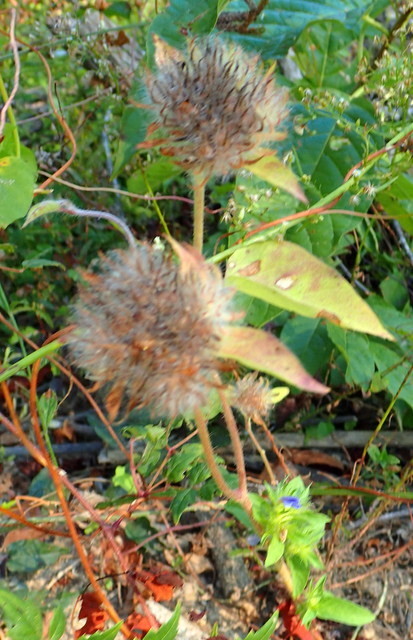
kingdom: Plantae
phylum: Tracheophyta
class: Magnoliopsida
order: Solanales
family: Convolvulaceae
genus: Jacquemontia
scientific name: Jacquemontia tamnifolia
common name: Hairy clustervine
